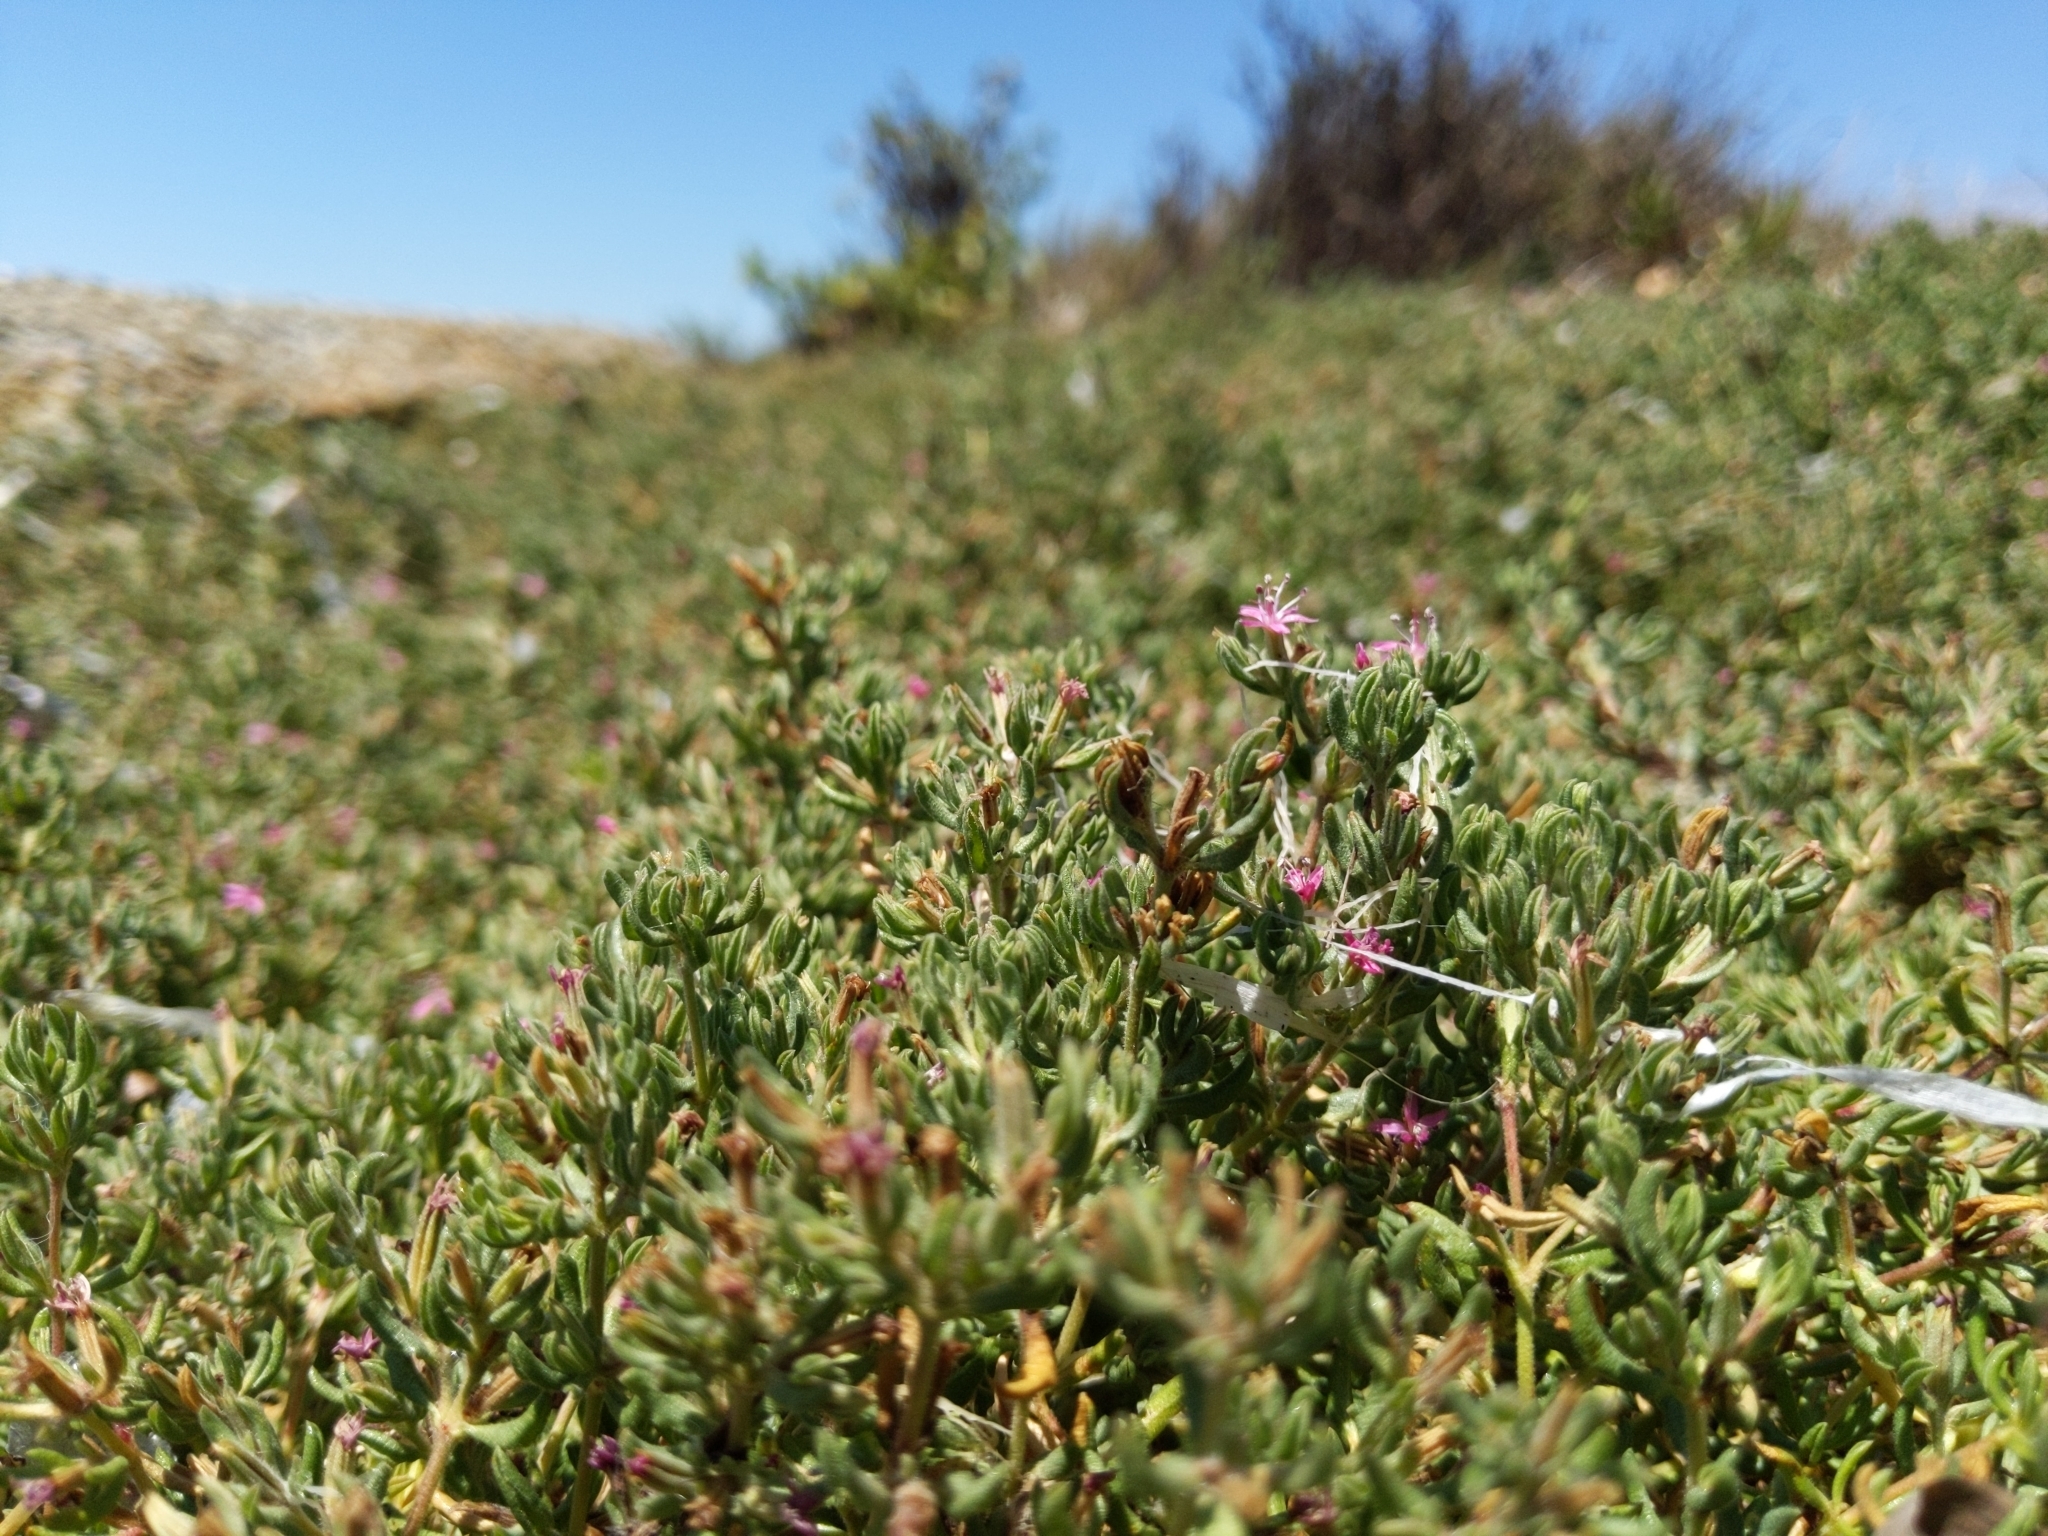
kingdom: Plantae
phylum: Tracheophyta
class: Magnoliopsida
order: Caryophyllales
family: Frankeniaceae
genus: Frankenia
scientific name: Frankenia salina
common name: Alkali seaheath
